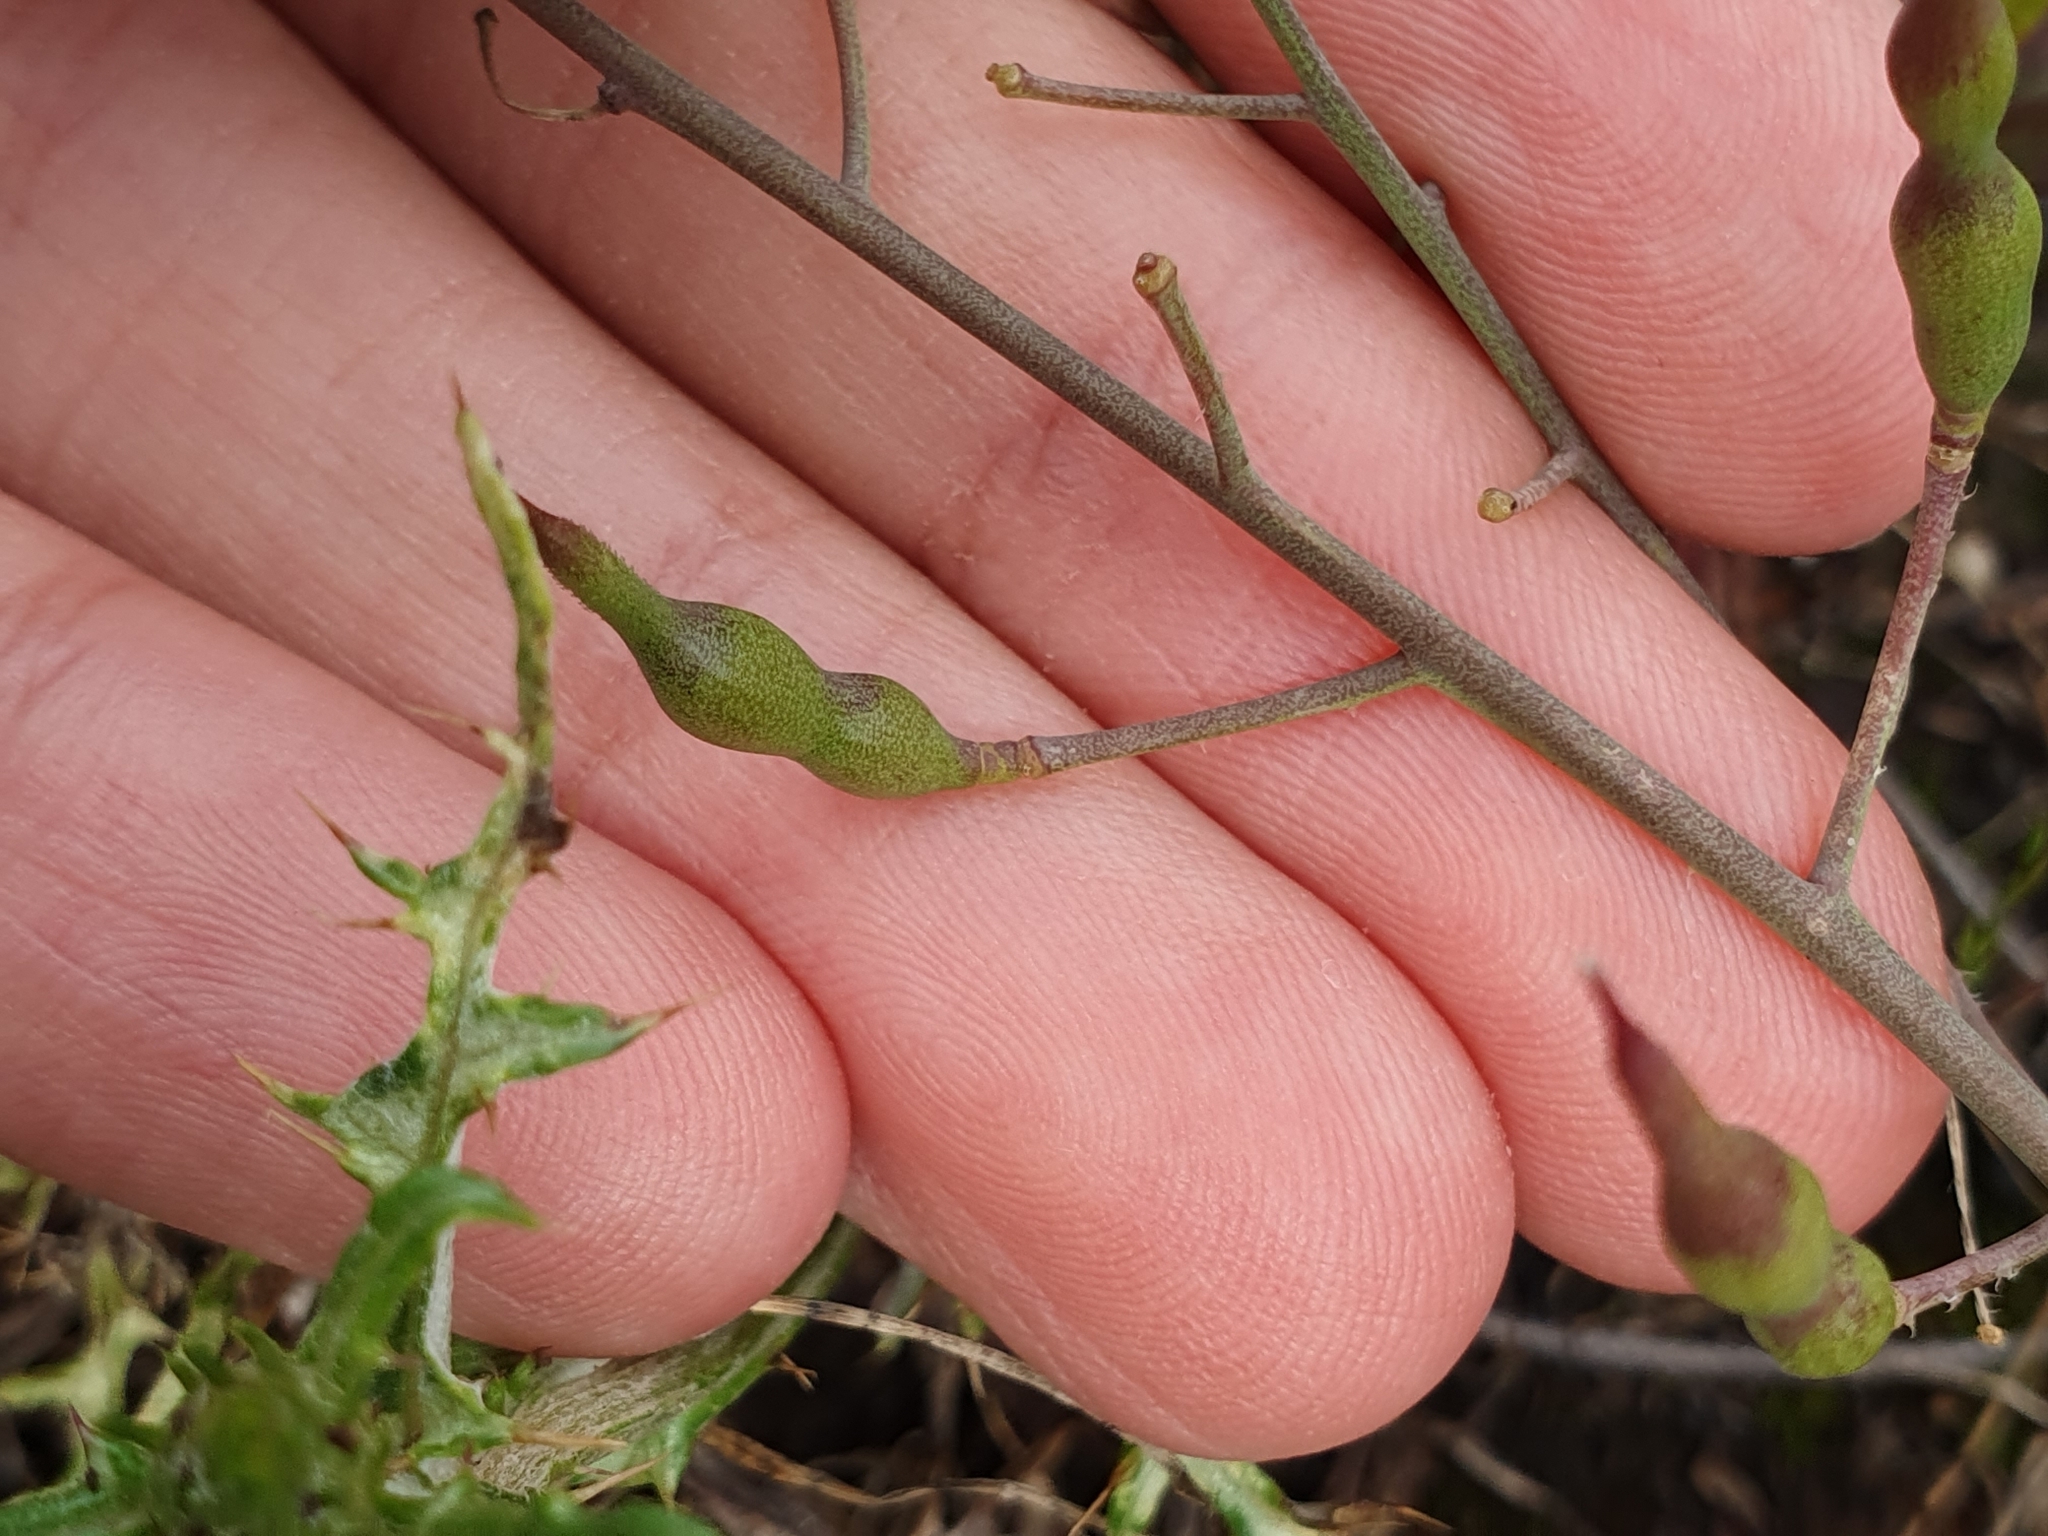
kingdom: Plantae
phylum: Tracheophyta
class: Magnoliopsida
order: Brassicales
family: Brassicaceae
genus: Raphanus
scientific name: Raphanus raphanistrum
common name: Wild radish
